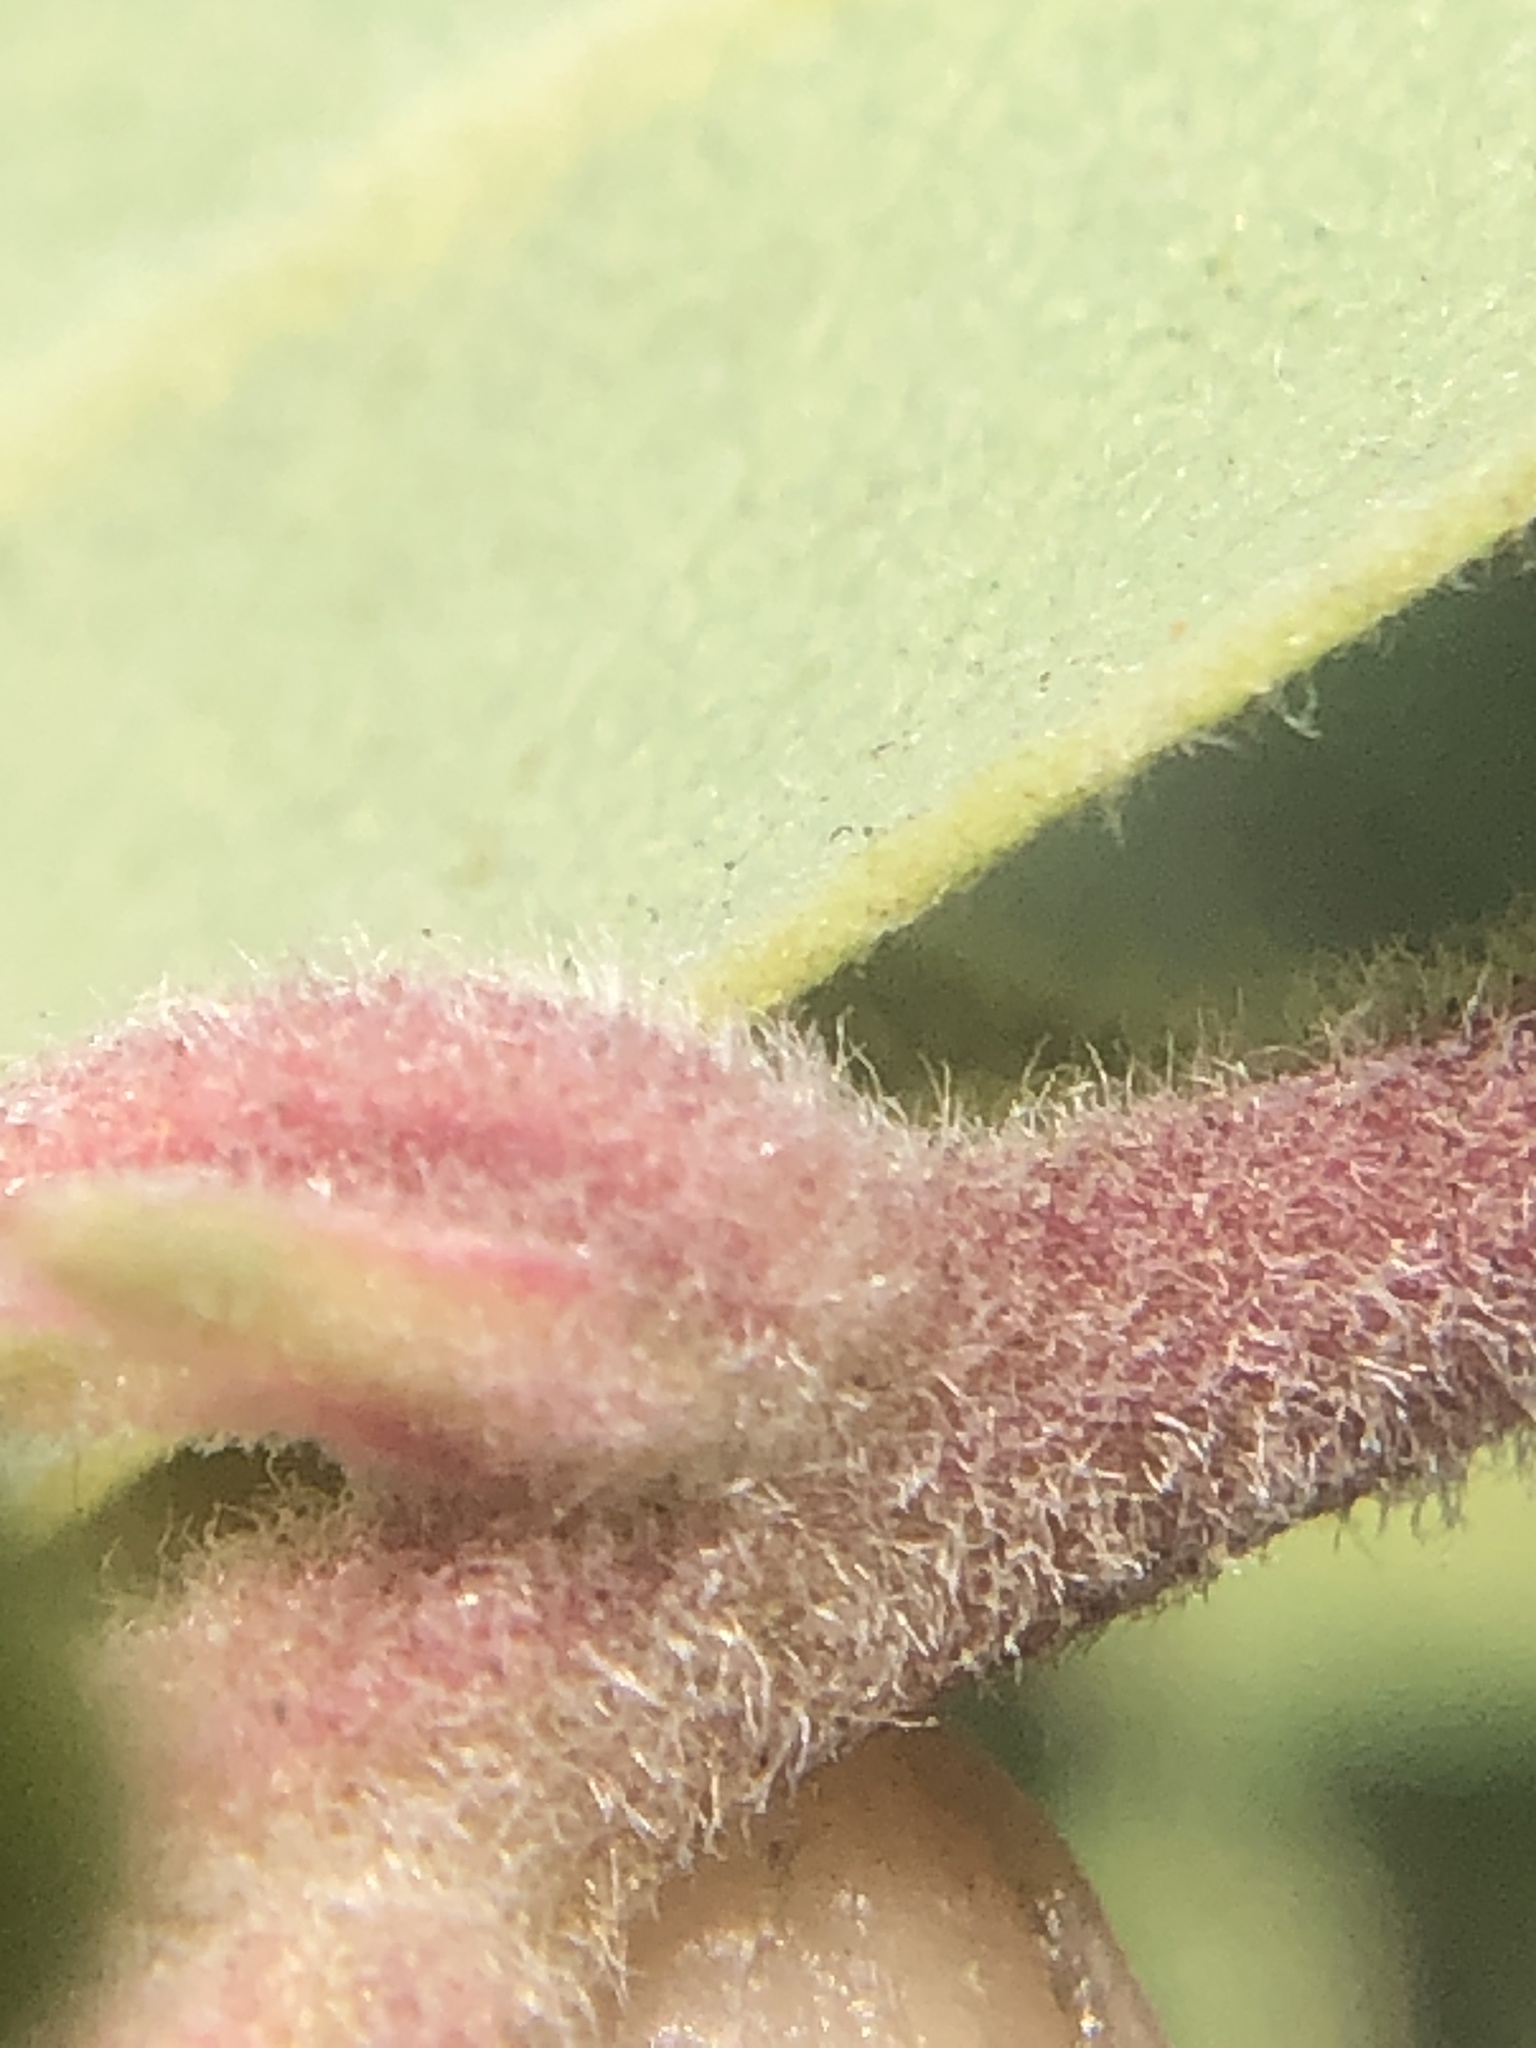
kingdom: Plantae
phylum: Tracheophyta
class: Magnoliopsida
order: Ericales
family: Ericaceae
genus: Arctostaphylos
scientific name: Arctostaphylos glandulosa
